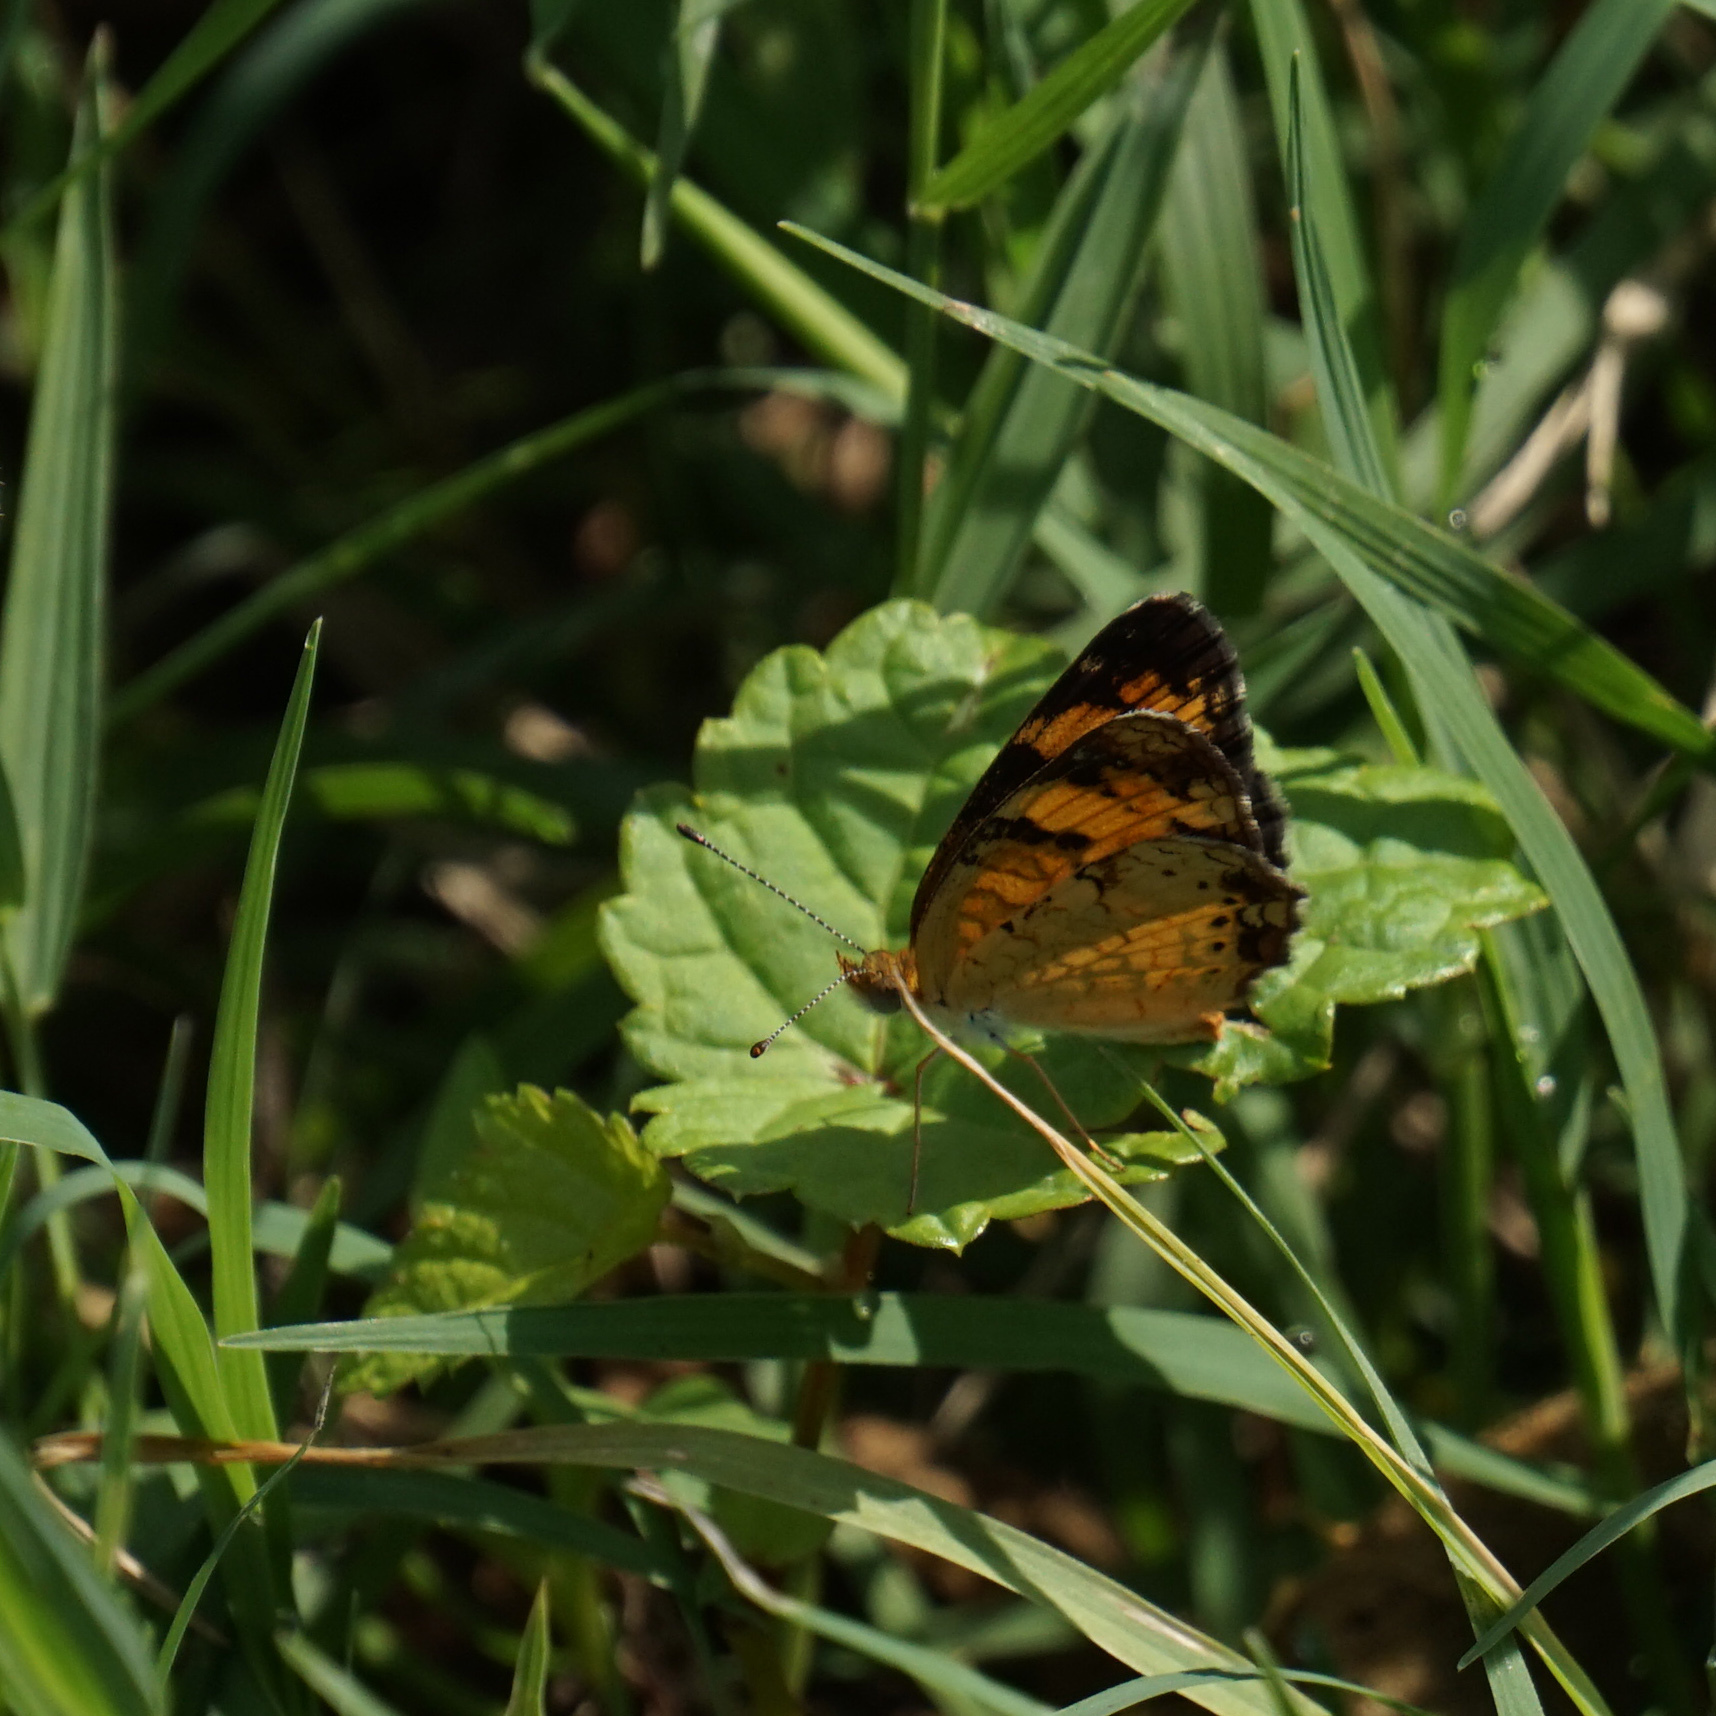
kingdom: Animalia
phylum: Arthropoda
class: Insecta
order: Lepidoptera
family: Nymphalidae
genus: Phyciodes
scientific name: Phyciodes tharos
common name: Pearl crescent
